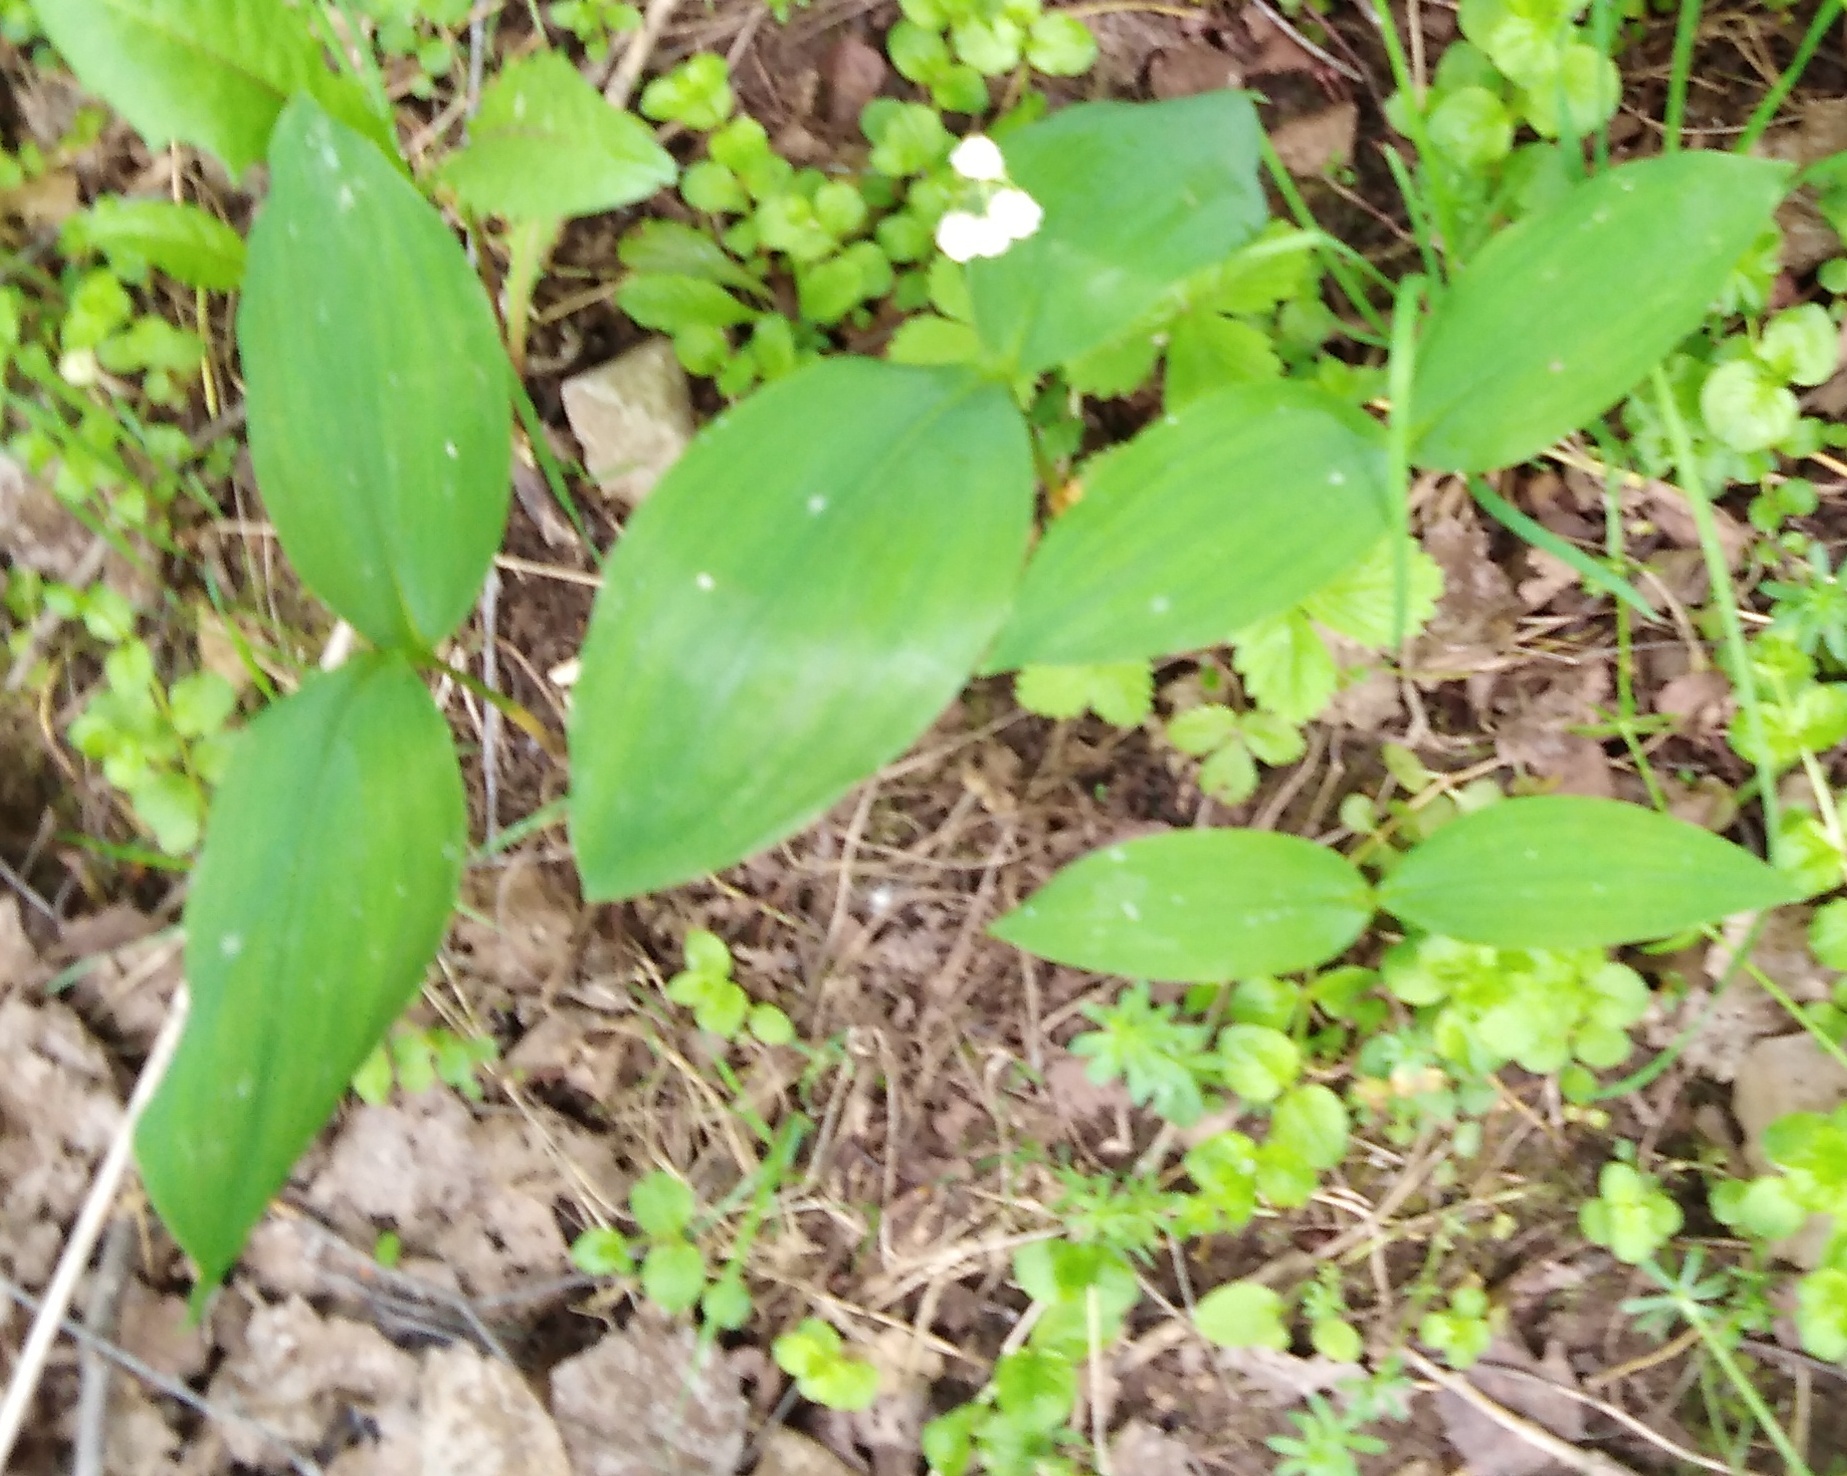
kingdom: Plantae
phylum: Tracheophyta
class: Liliopsida
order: Asparagales
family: Asparagaceae
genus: Convallaria
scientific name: Convallaria majalis
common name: Lily-of-the-valley
